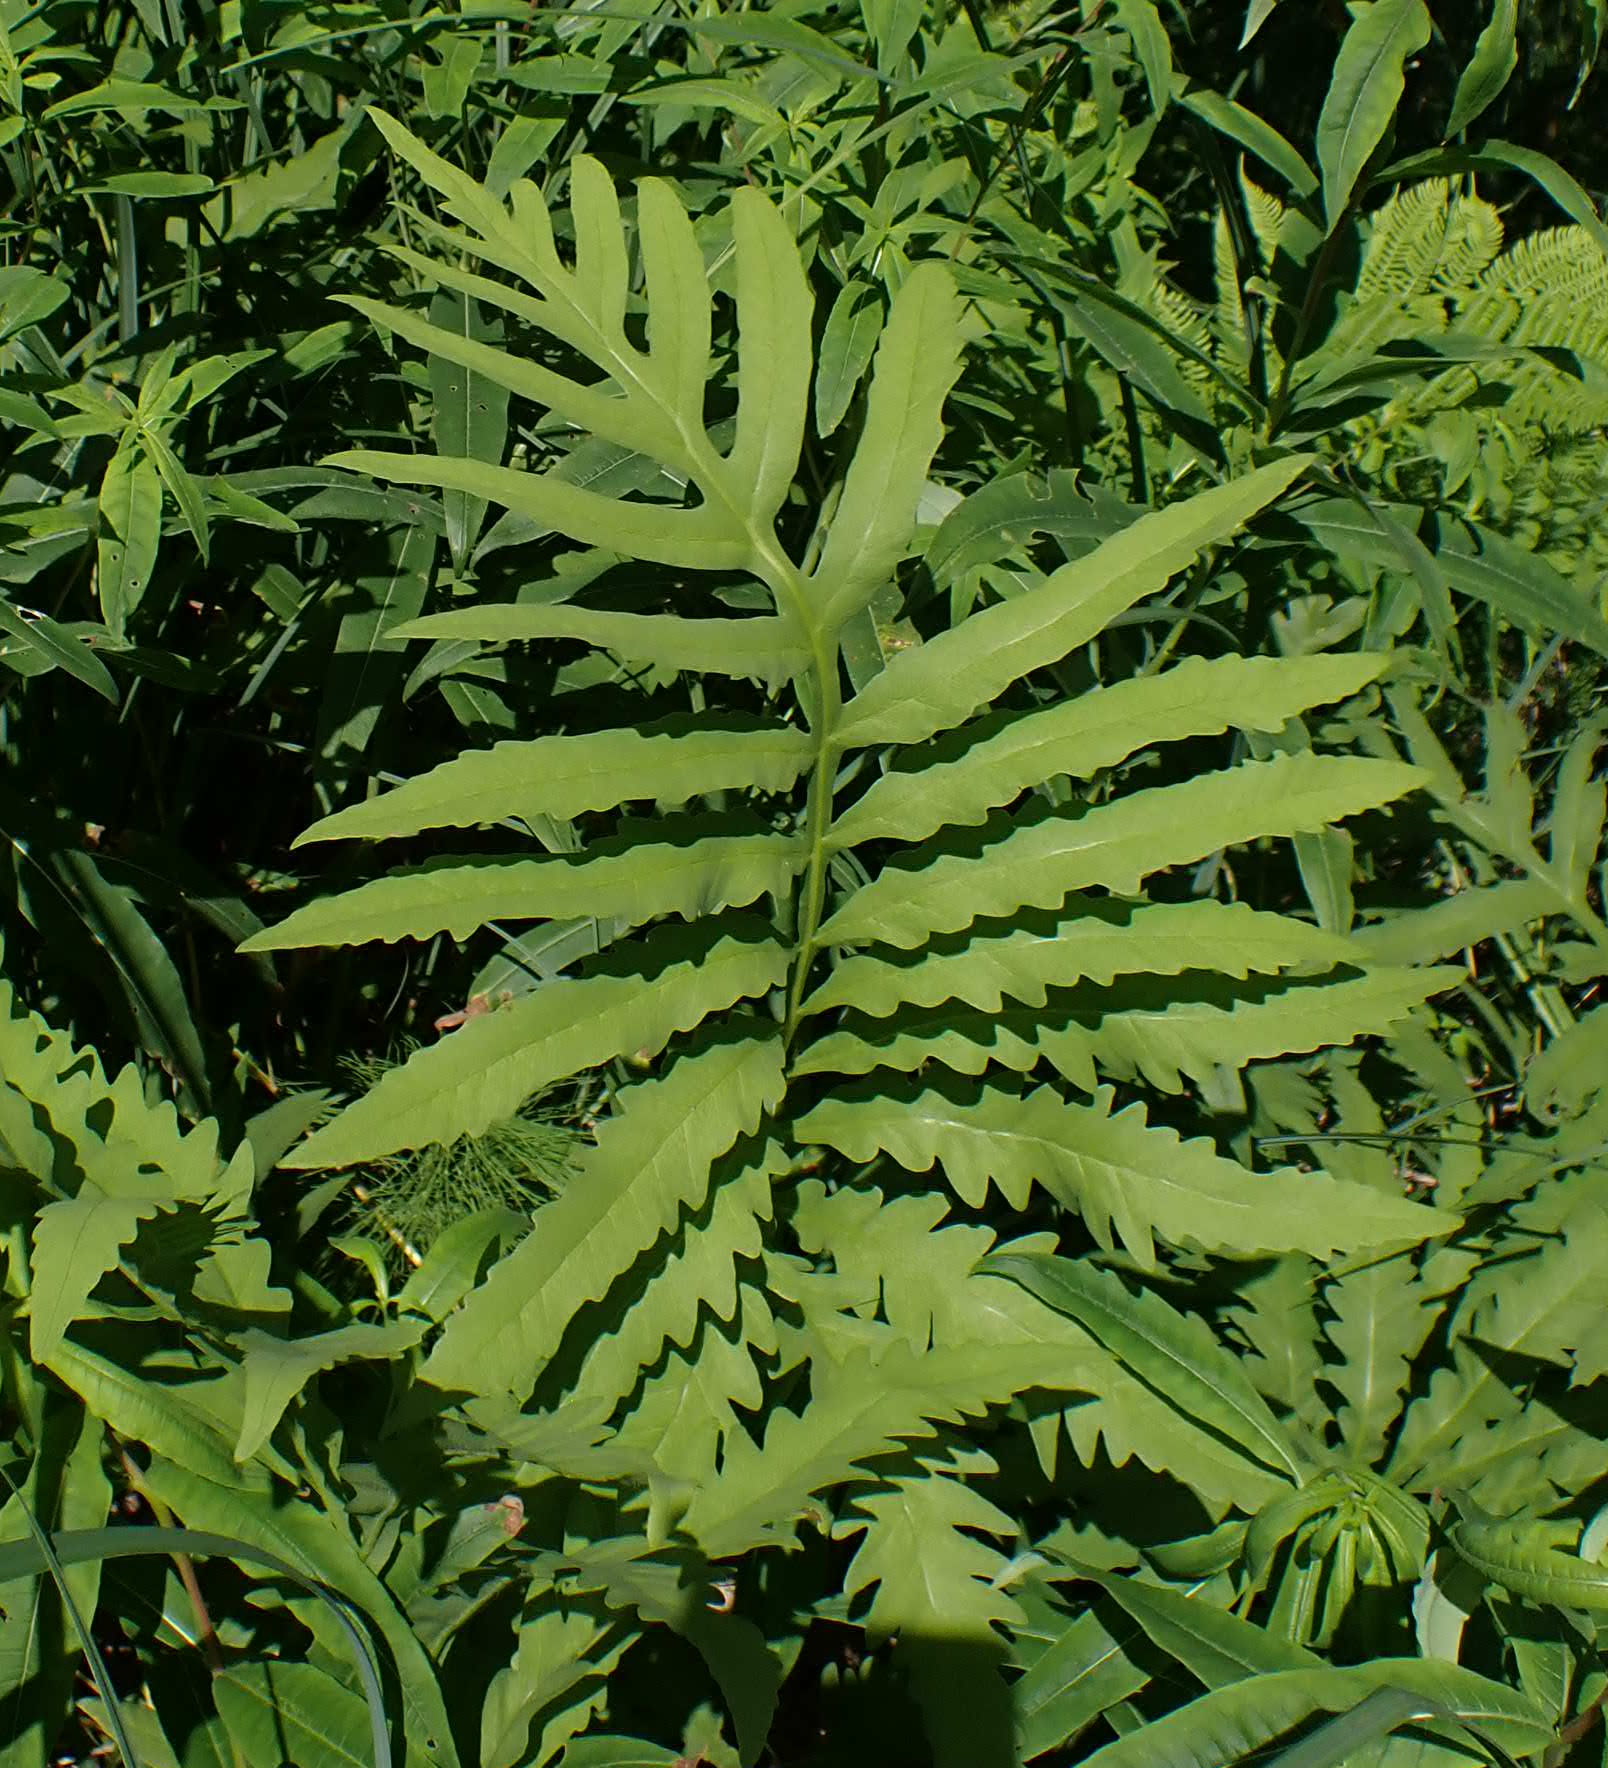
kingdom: Plantae
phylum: Tracheophyta
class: Polypodiopsida
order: Polypodiales
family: Onocleaceae
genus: Onoclea
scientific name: Onoclea sensibilis
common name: Sensitive fern
